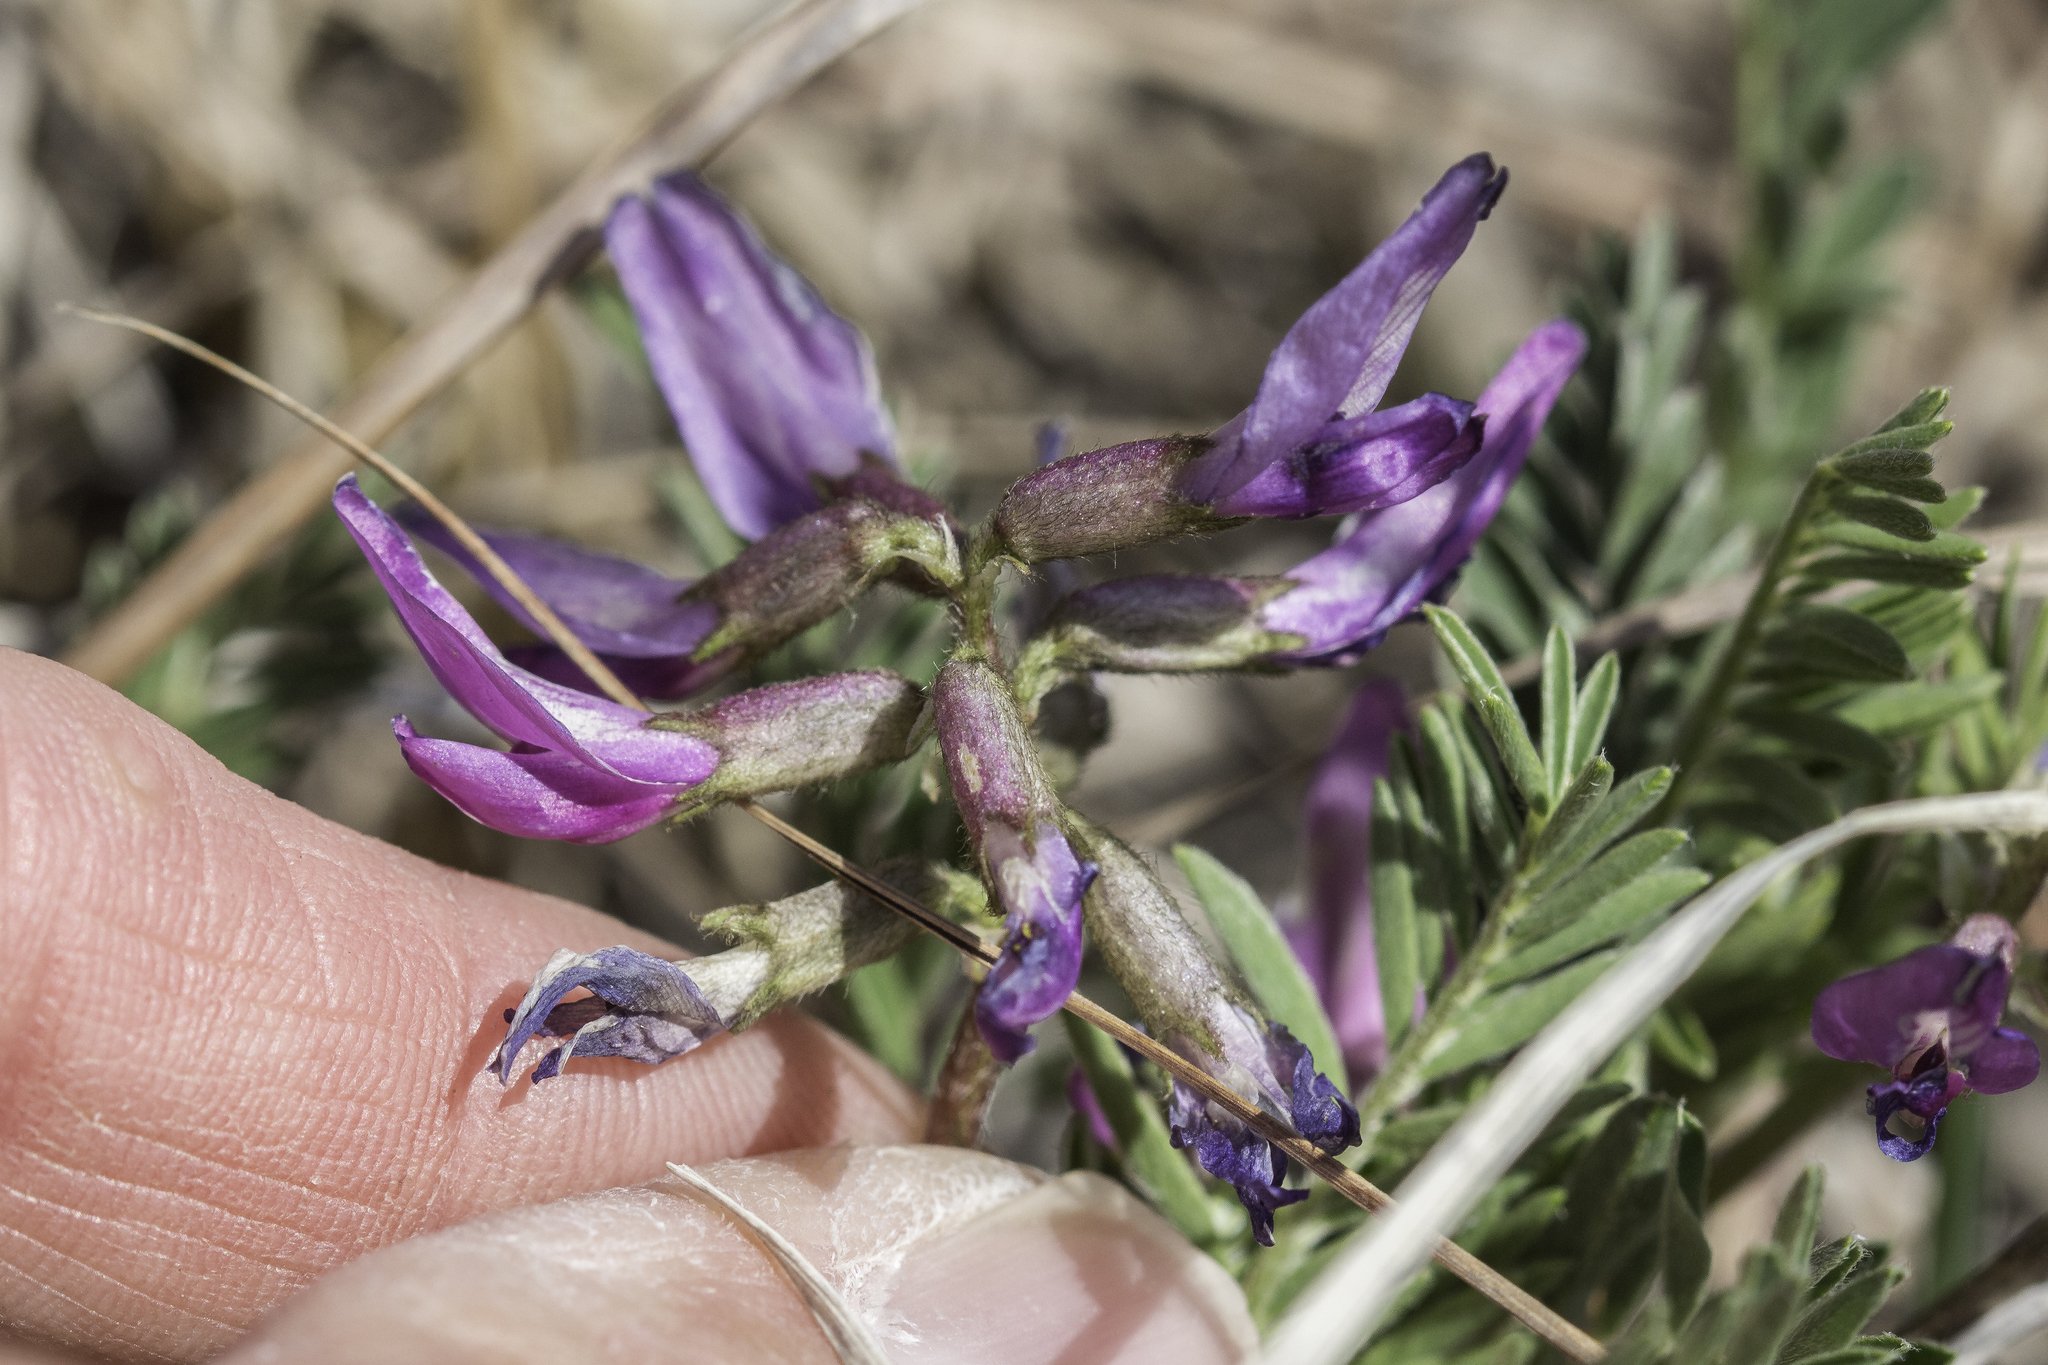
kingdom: Plantae
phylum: Tracheophyta
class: Magnoliopsida
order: Fabales
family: Fabaceae
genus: Astragalus
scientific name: Astragalus crassicarpus
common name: Ground-plum milk-vetch
